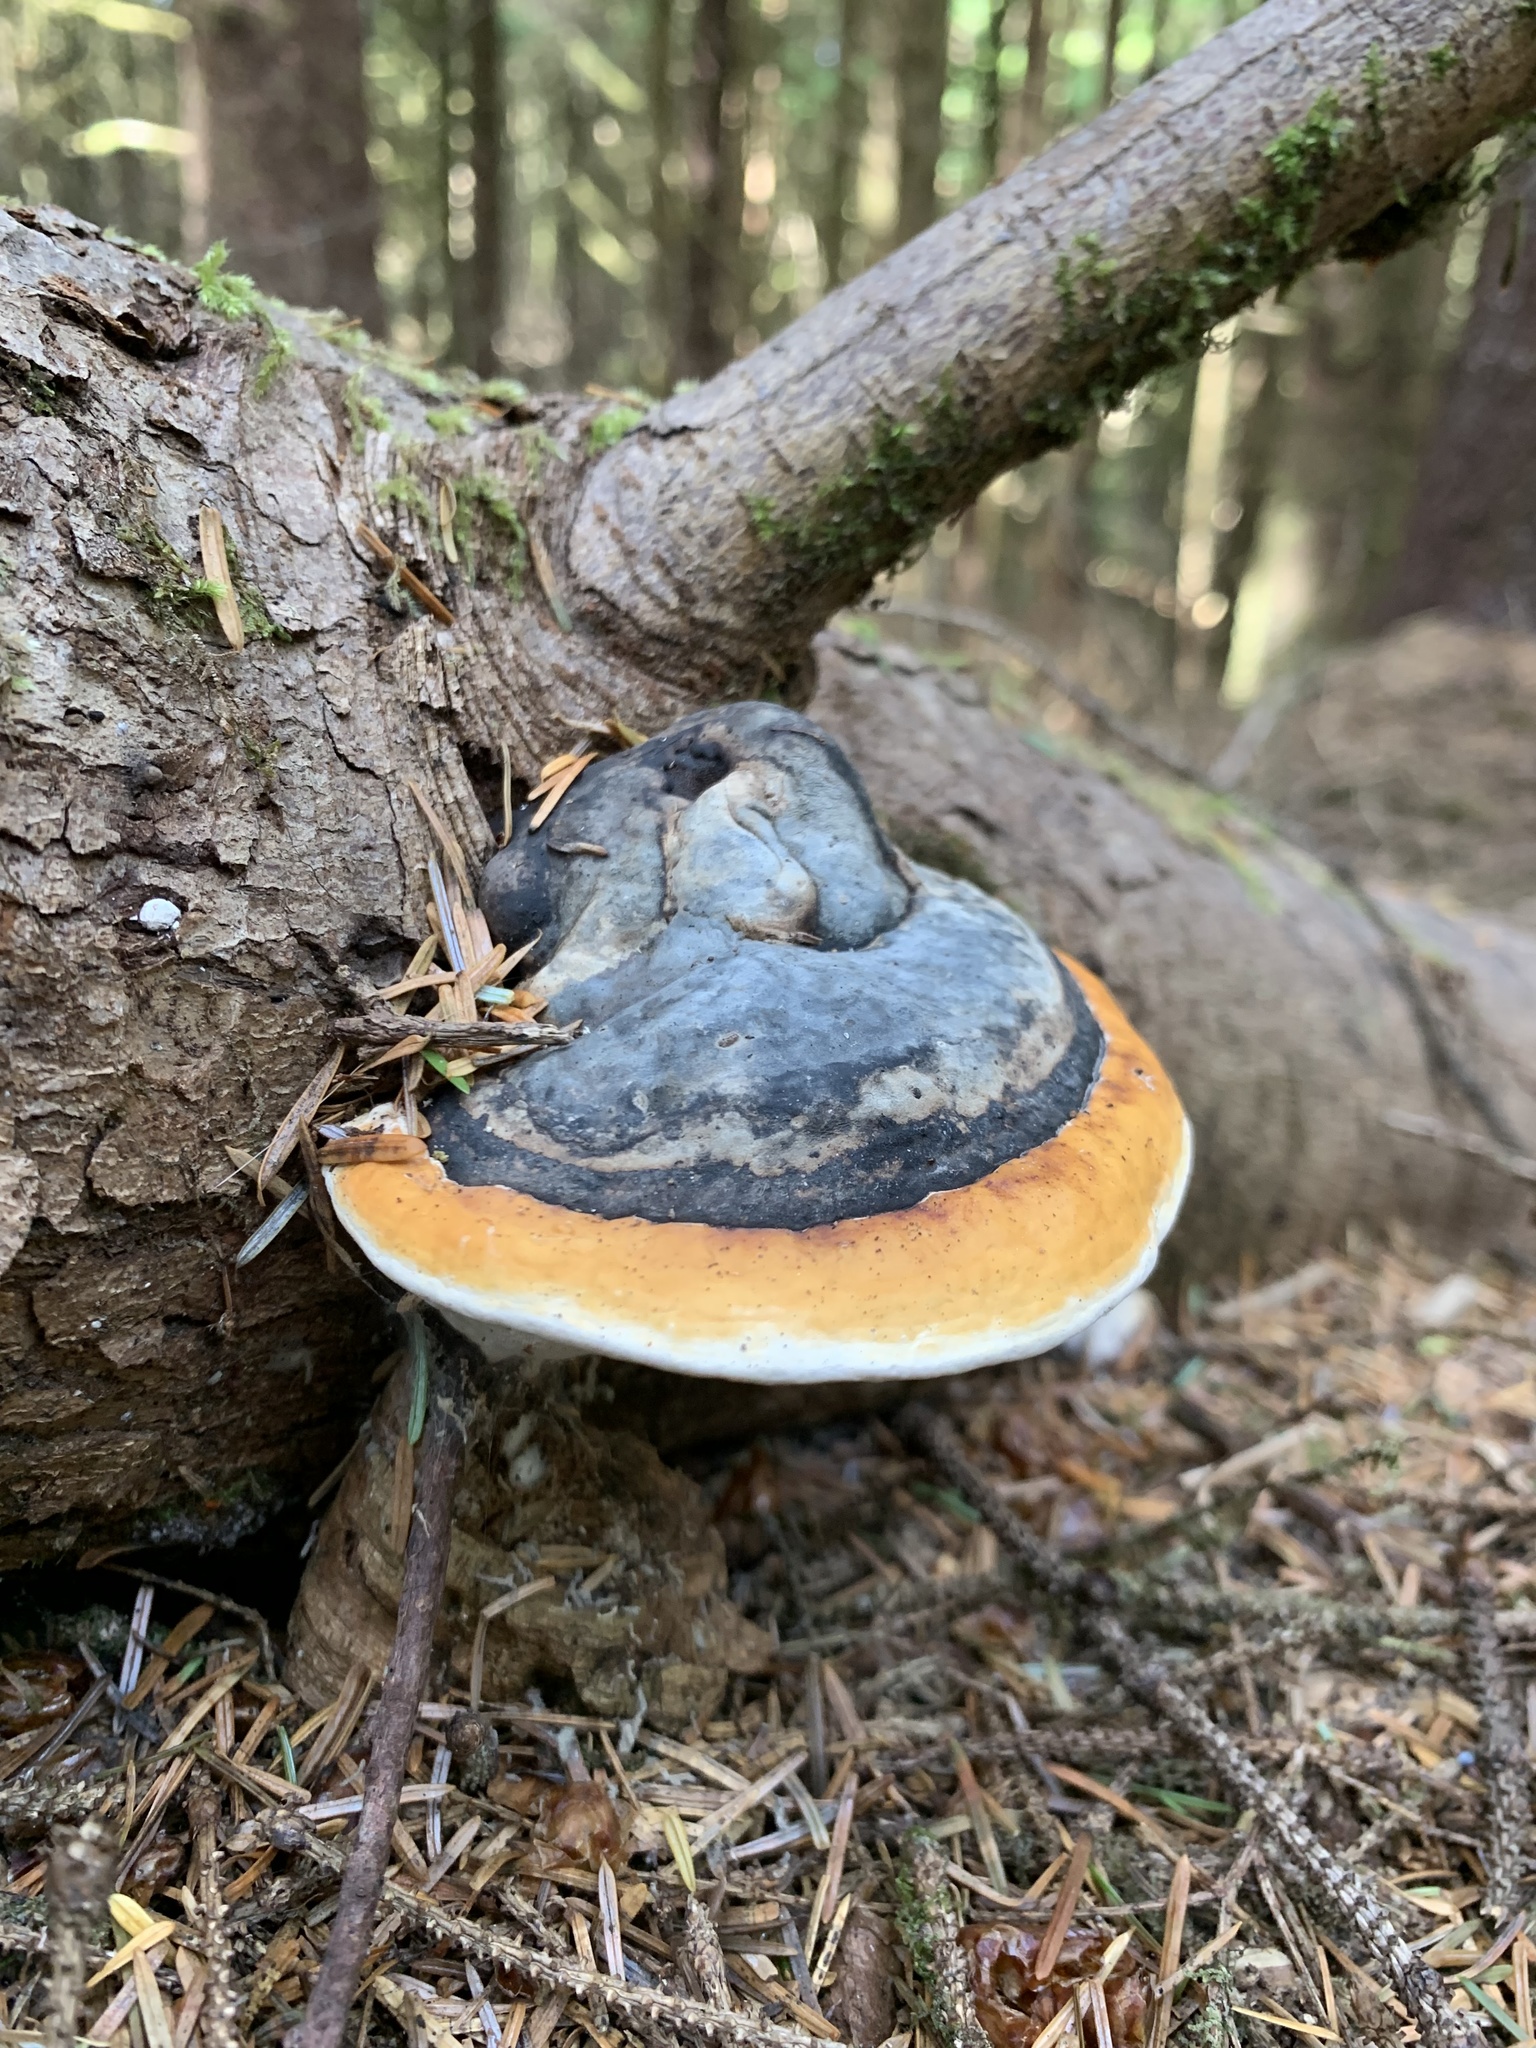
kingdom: Fungi
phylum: Basidiomycota
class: Agaricomycetes
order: Polyporales
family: Fomitopsidaceae
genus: Fomitopsis
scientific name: Fomitopsis mounceae
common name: Northern red belt
